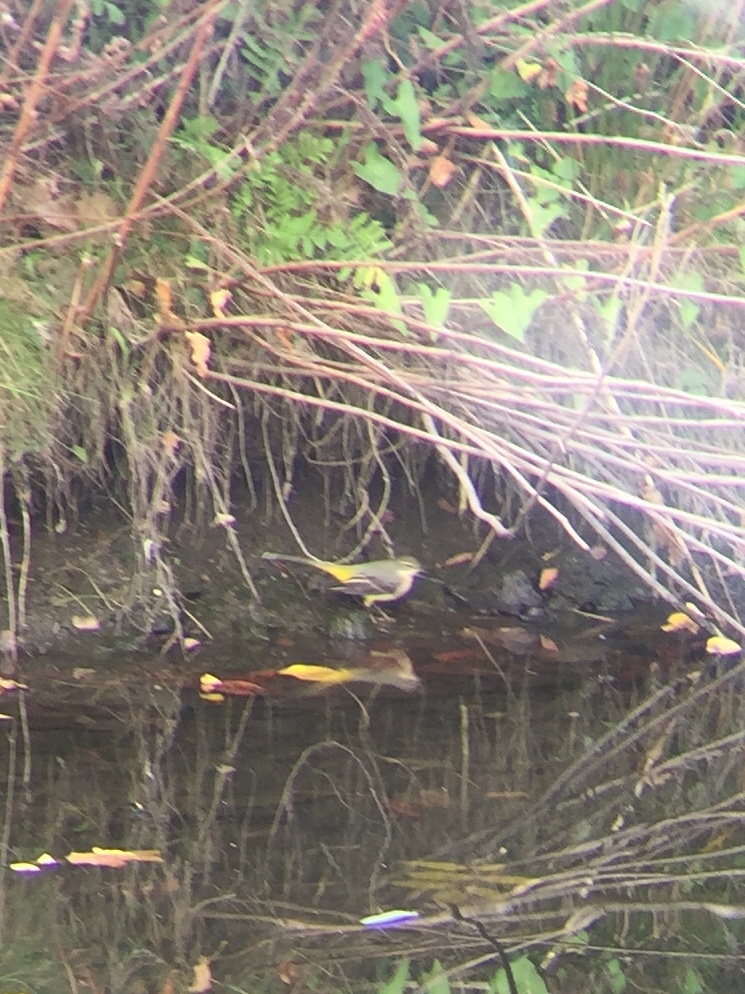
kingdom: Animalia
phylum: Chordata
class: Aves
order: Passeriformes
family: Motacillidae
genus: Motacilla
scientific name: Motacilla cinerea
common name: Grey wagtail
